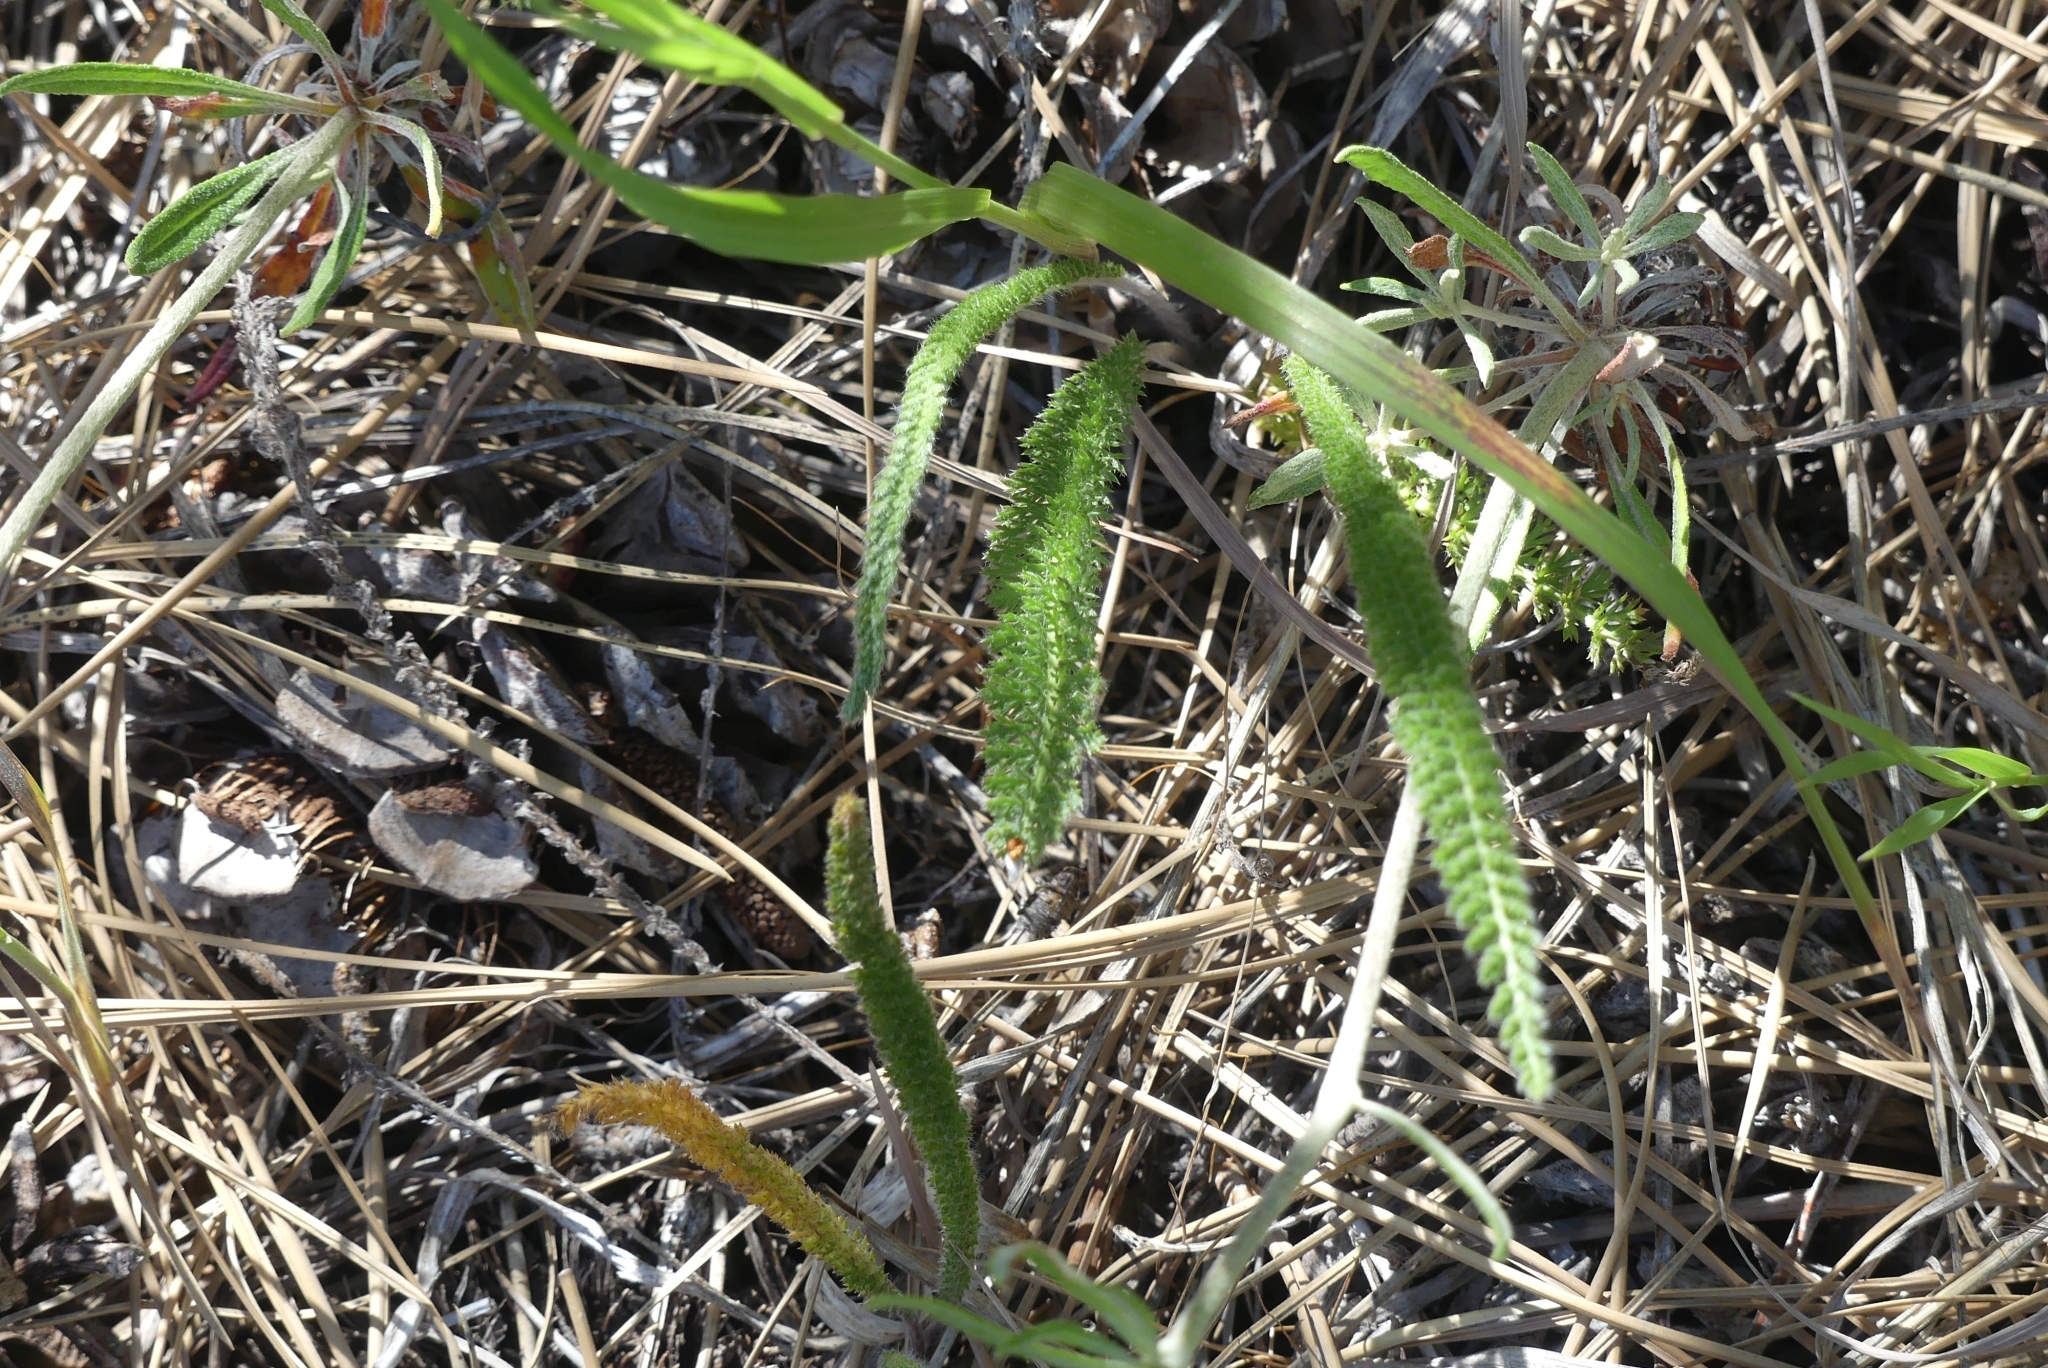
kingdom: Plantae
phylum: Tracheophyta
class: Magnoliopsida
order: Asterales
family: Asteraceae
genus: Achillea
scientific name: Achillea millefolium
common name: Yarrow
